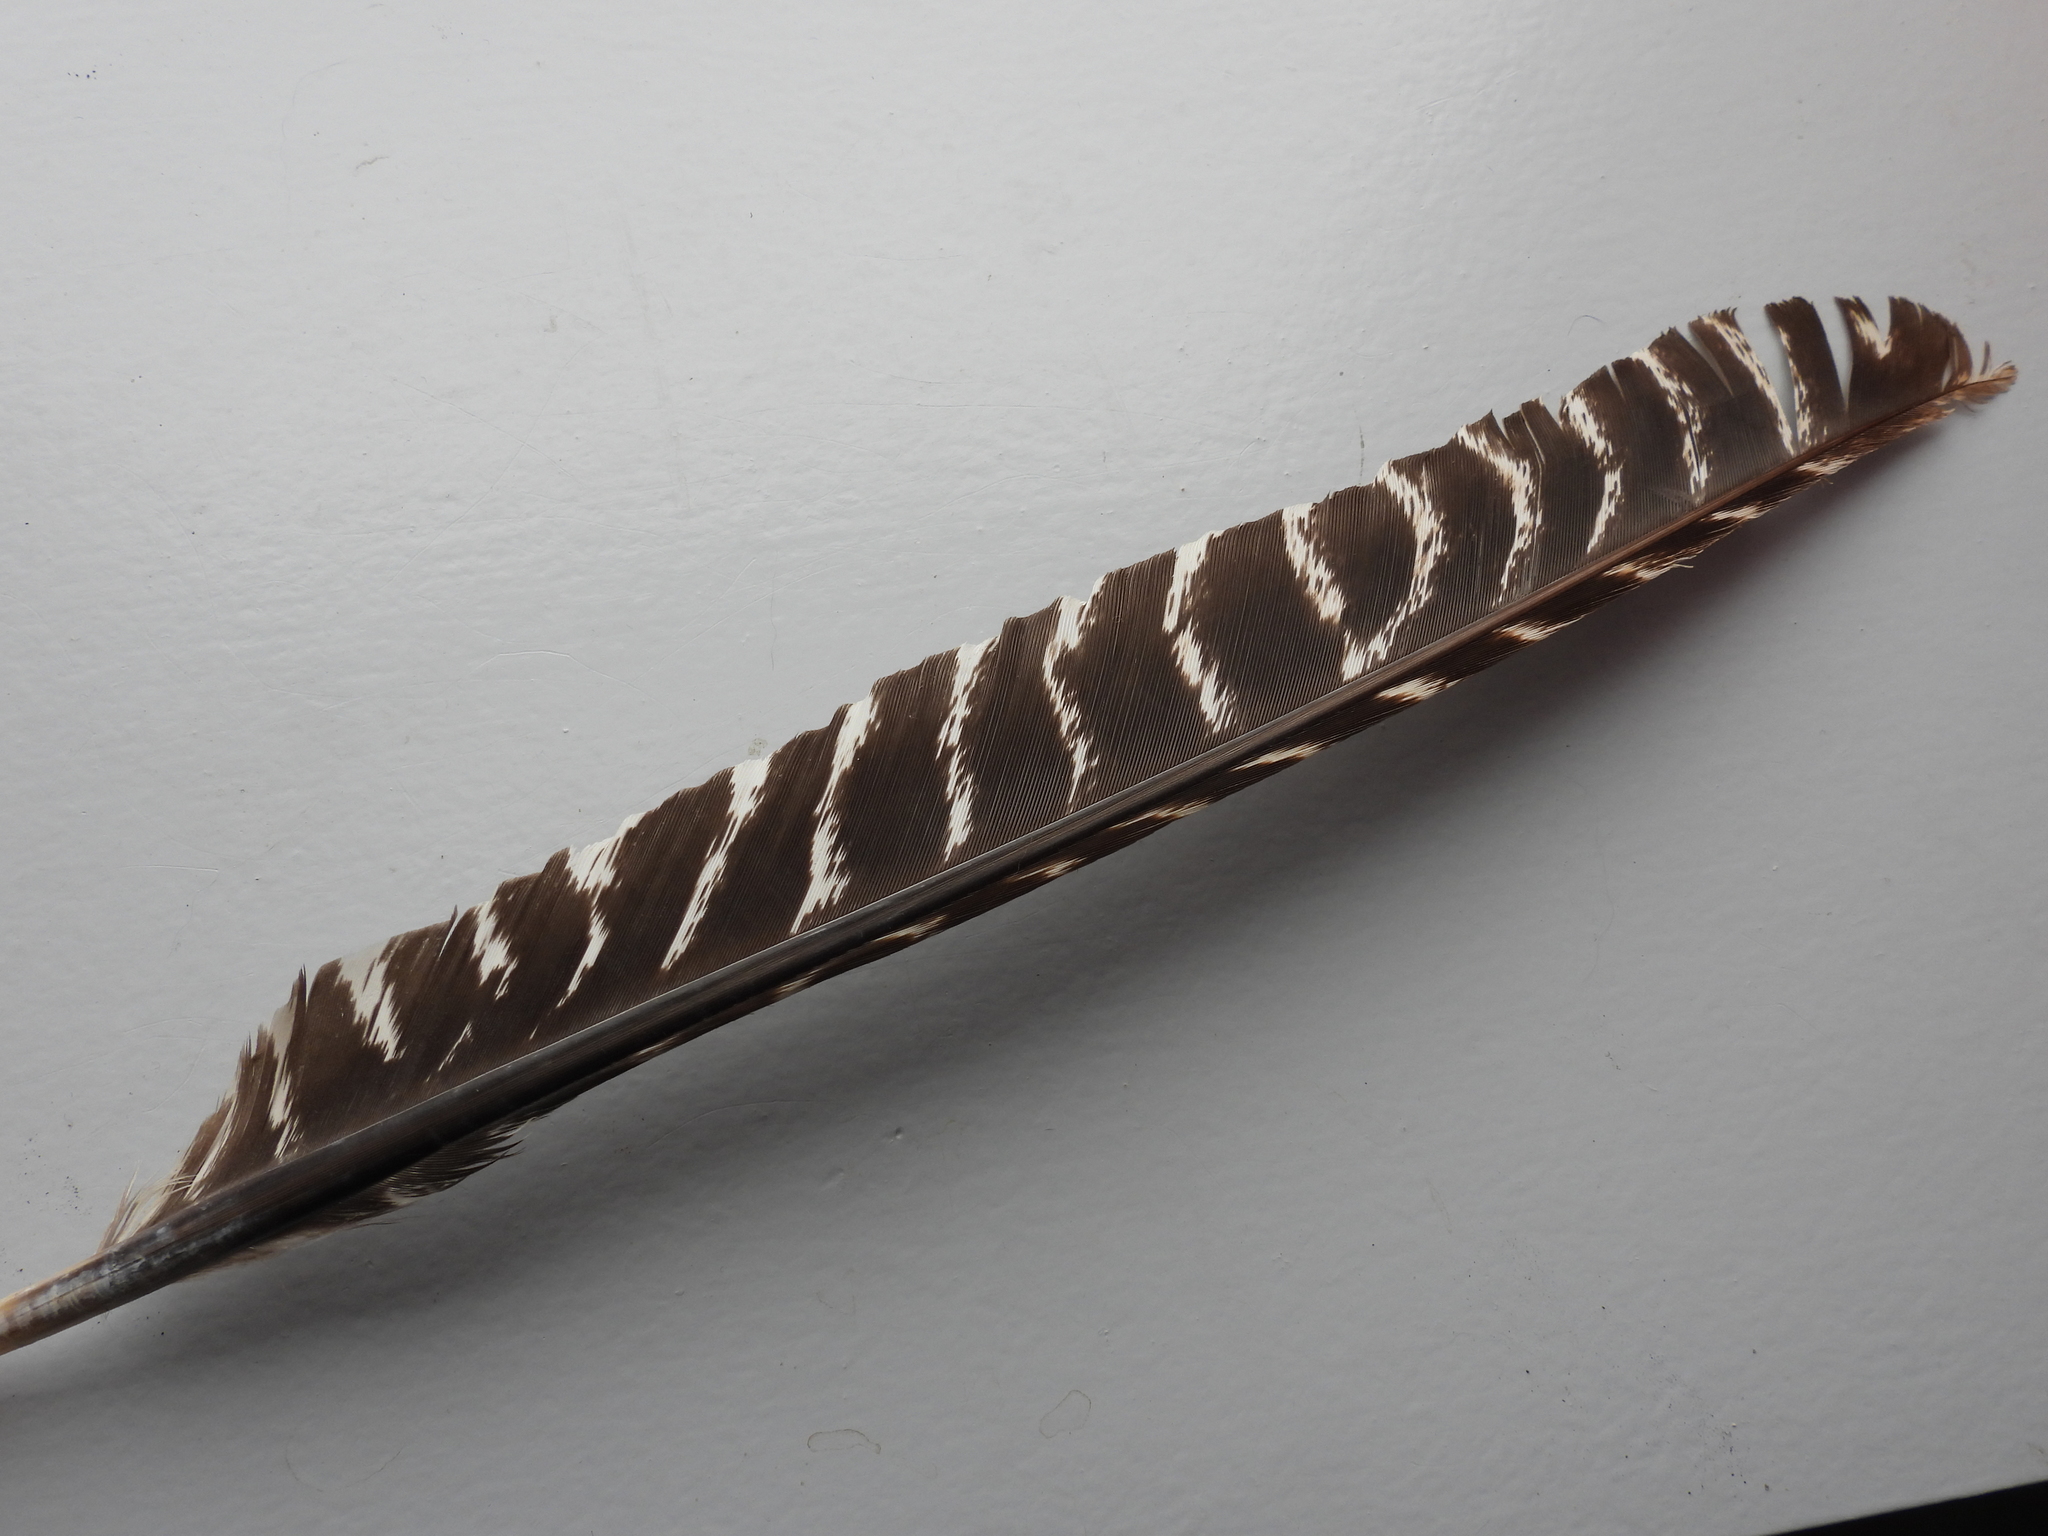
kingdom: Animalia
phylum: Chordata
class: Aves
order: Galliformes
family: Phasianidae
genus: Meleagris
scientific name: Meleagris gallopavo
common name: Wild turkey
